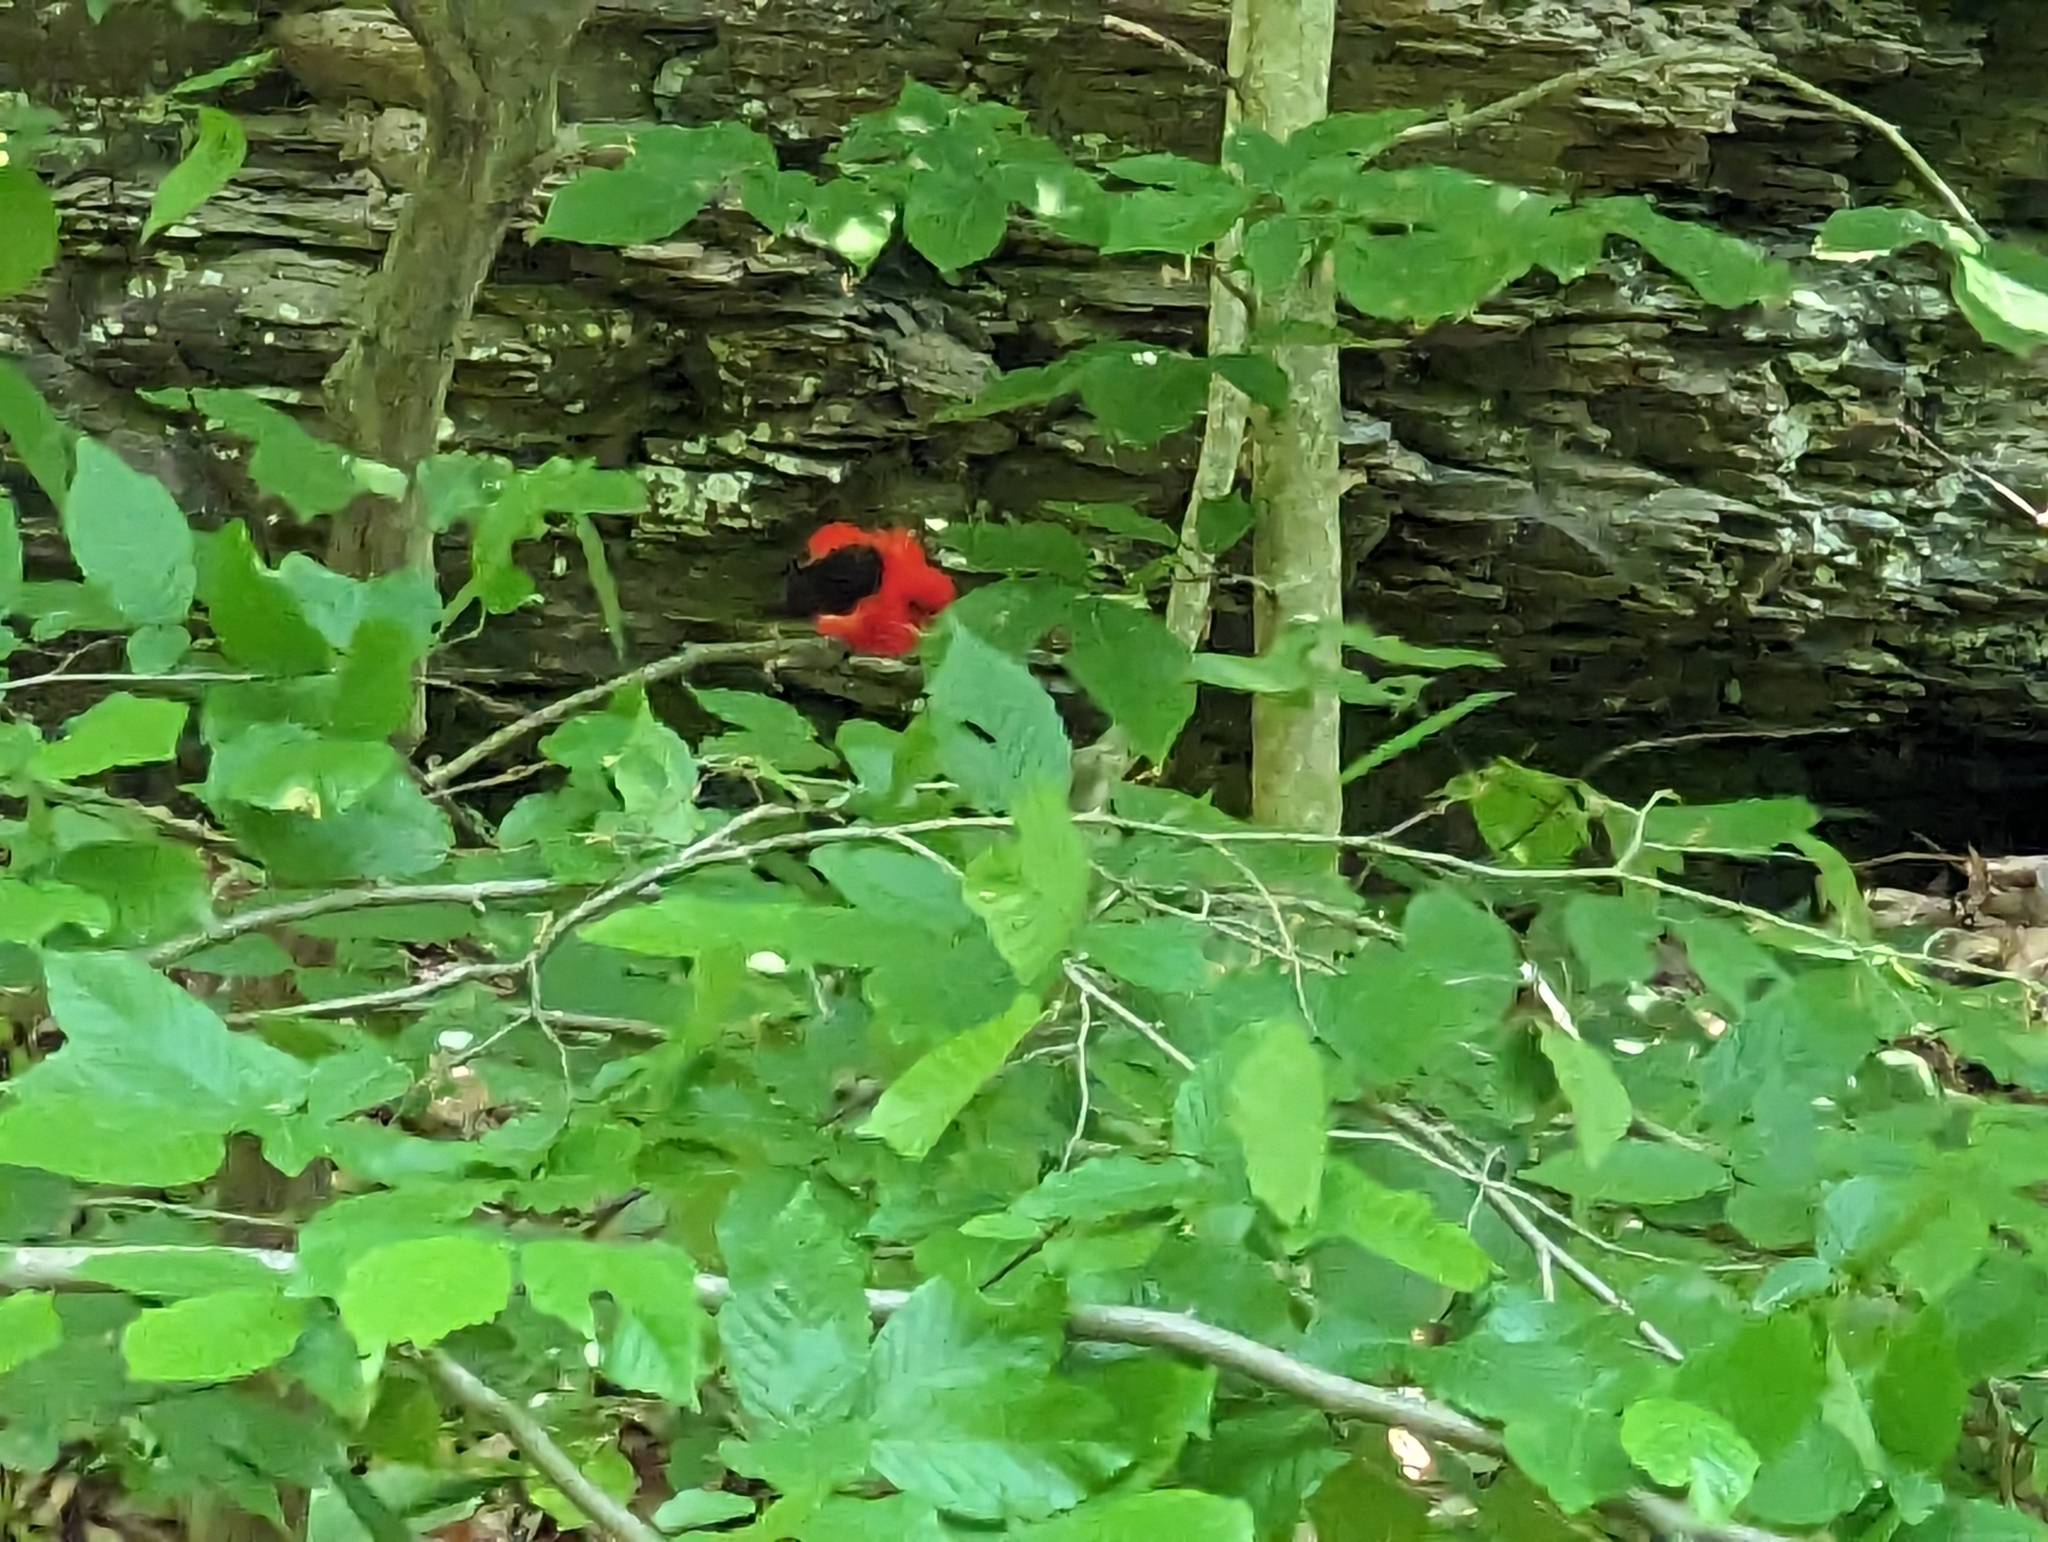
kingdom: Animalia
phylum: Chordata
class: Aves
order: Passeriformes
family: Cardinalidae
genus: Piranga
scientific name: Piranga olivacea
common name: Scarlet tanager
